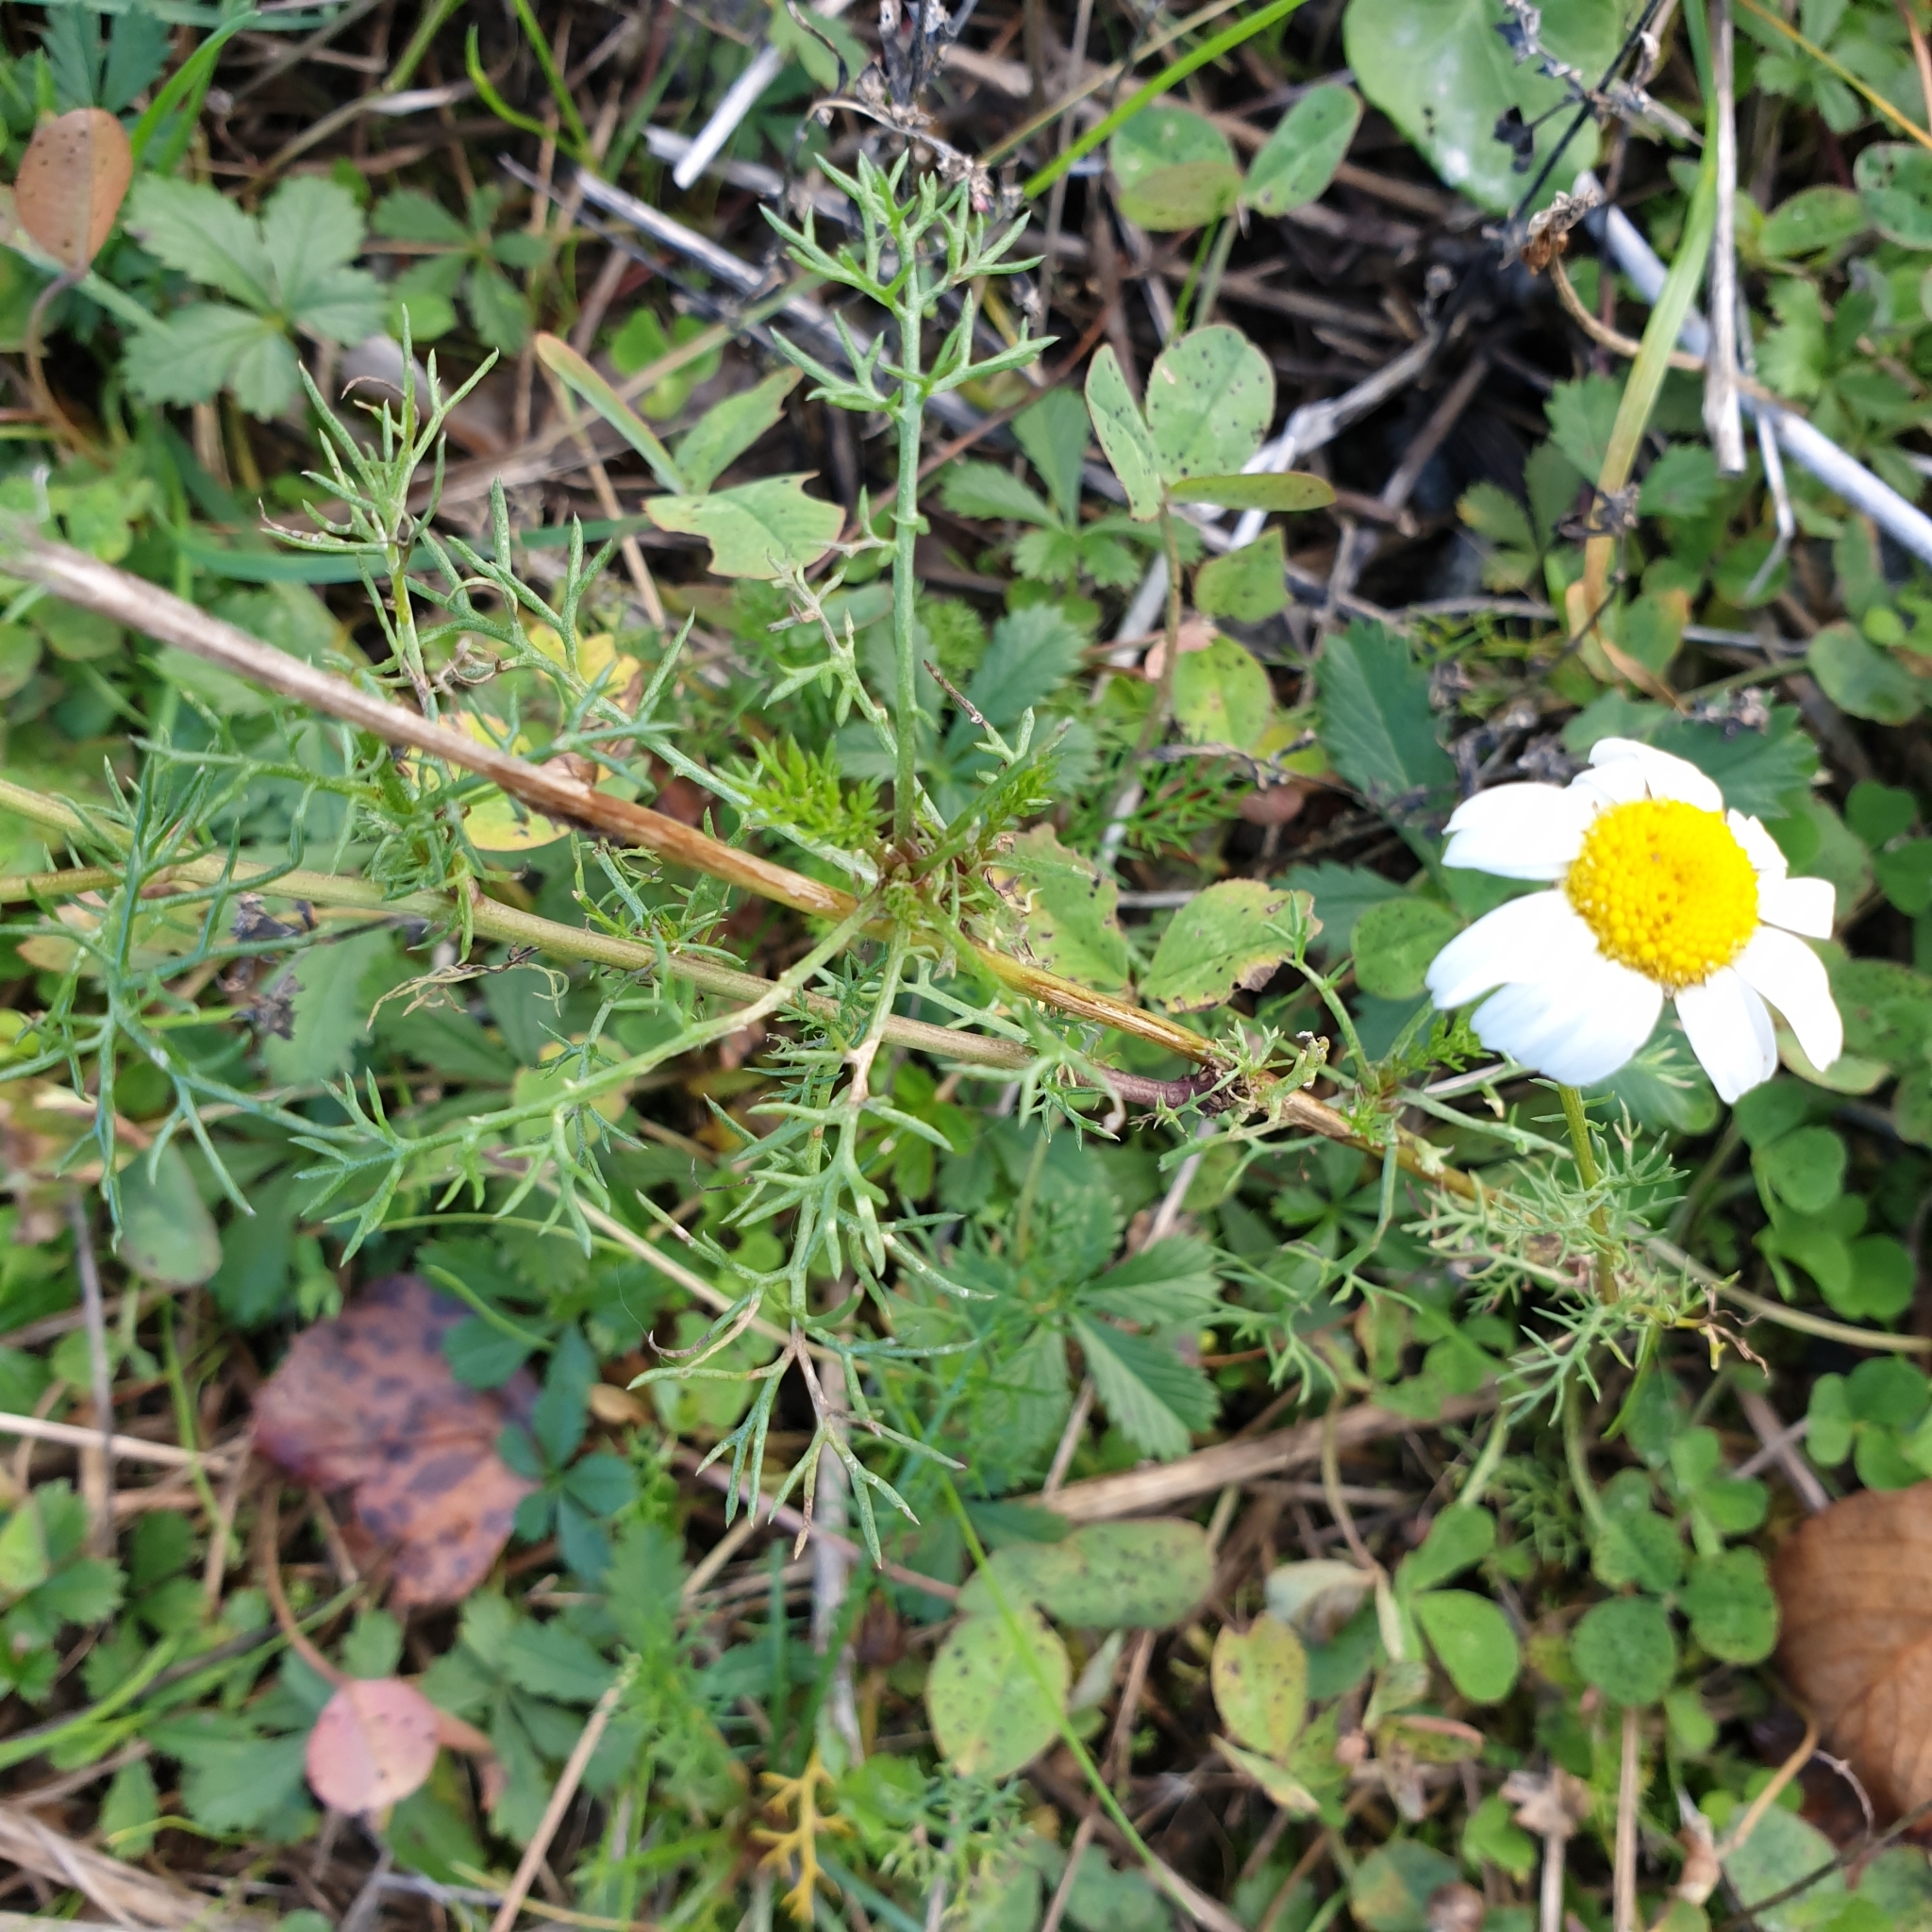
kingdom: Plantae
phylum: Tracheophyta
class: Magnoliopsida
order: Asterales
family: Asteraceae
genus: Tripleurospermum
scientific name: Tripleurospermum inodorum
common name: Scentless mayweed
